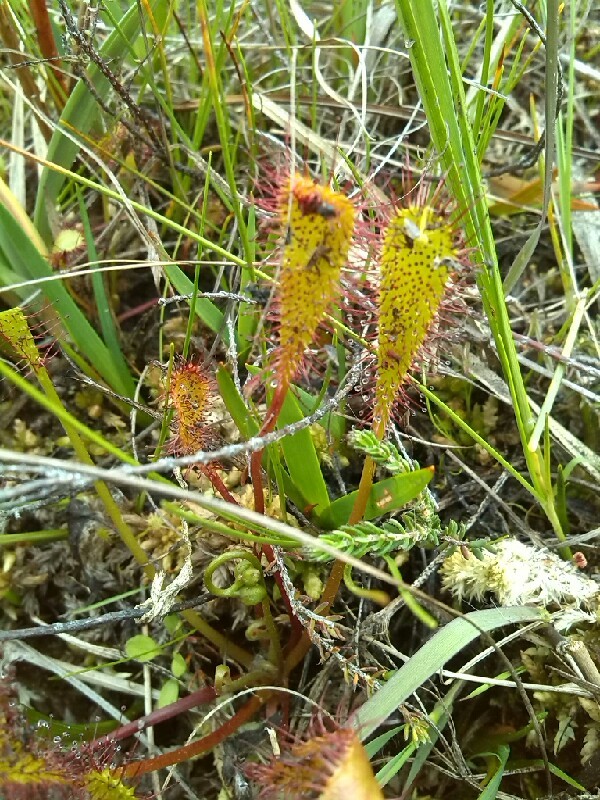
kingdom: Plantae
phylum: Tracheophyta
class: Magnoliopsida
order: Caryophyllales
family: Droseraceae
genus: Drosera
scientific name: Drosera anglica
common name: Great sundew
